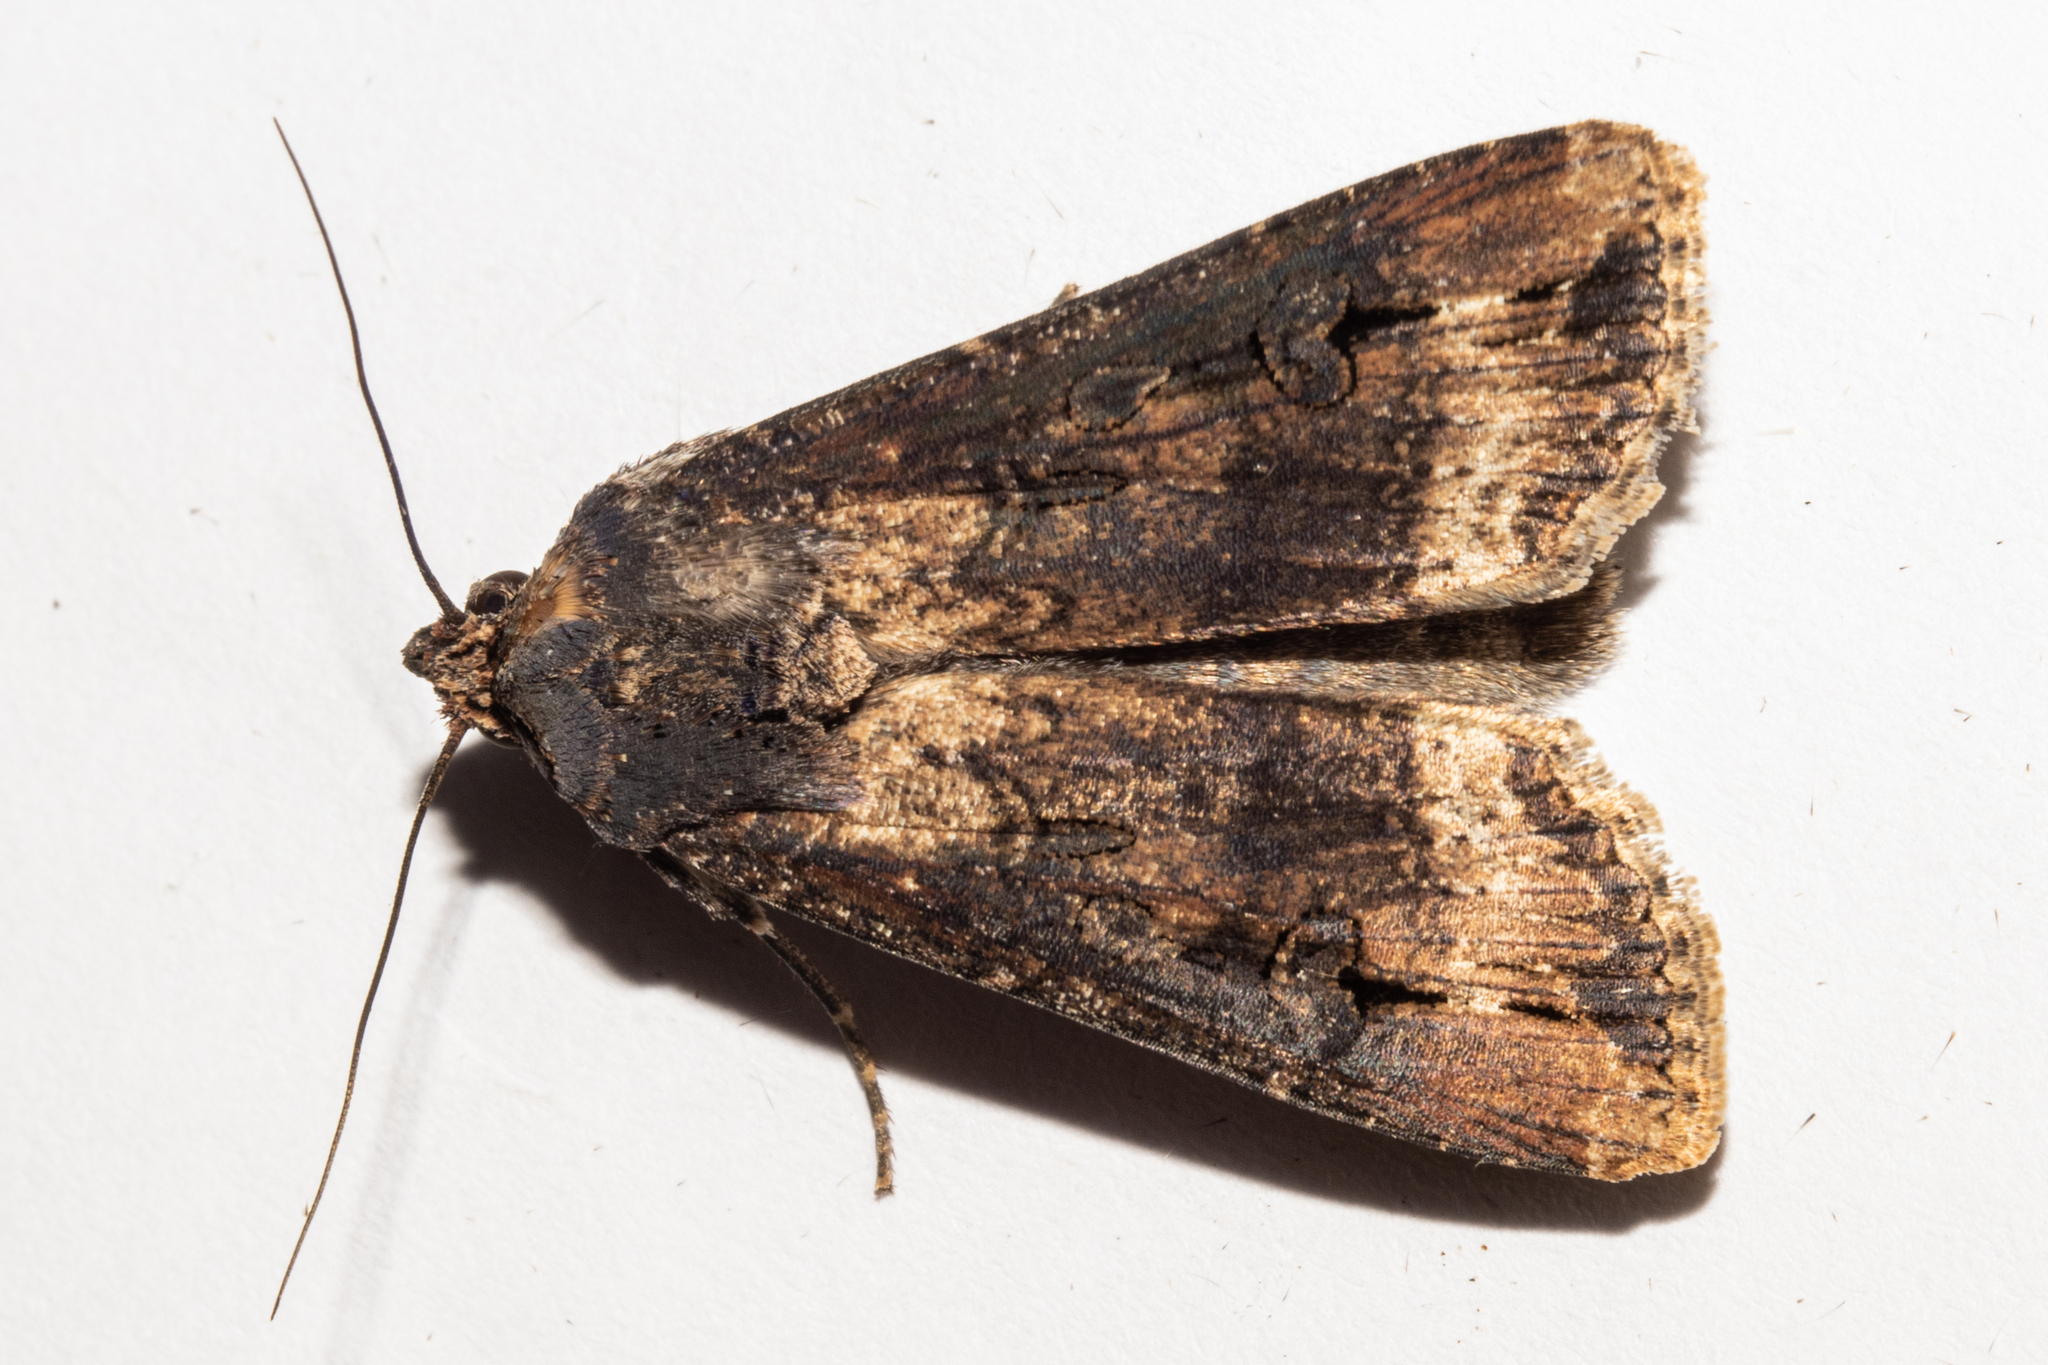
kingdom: Animalia
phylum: Arthropoda
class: Insecta
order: Lepidoptera
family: Noctuidae
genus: Agrotis
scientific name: Agrotis ipsilon
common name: Dark sword-grass
